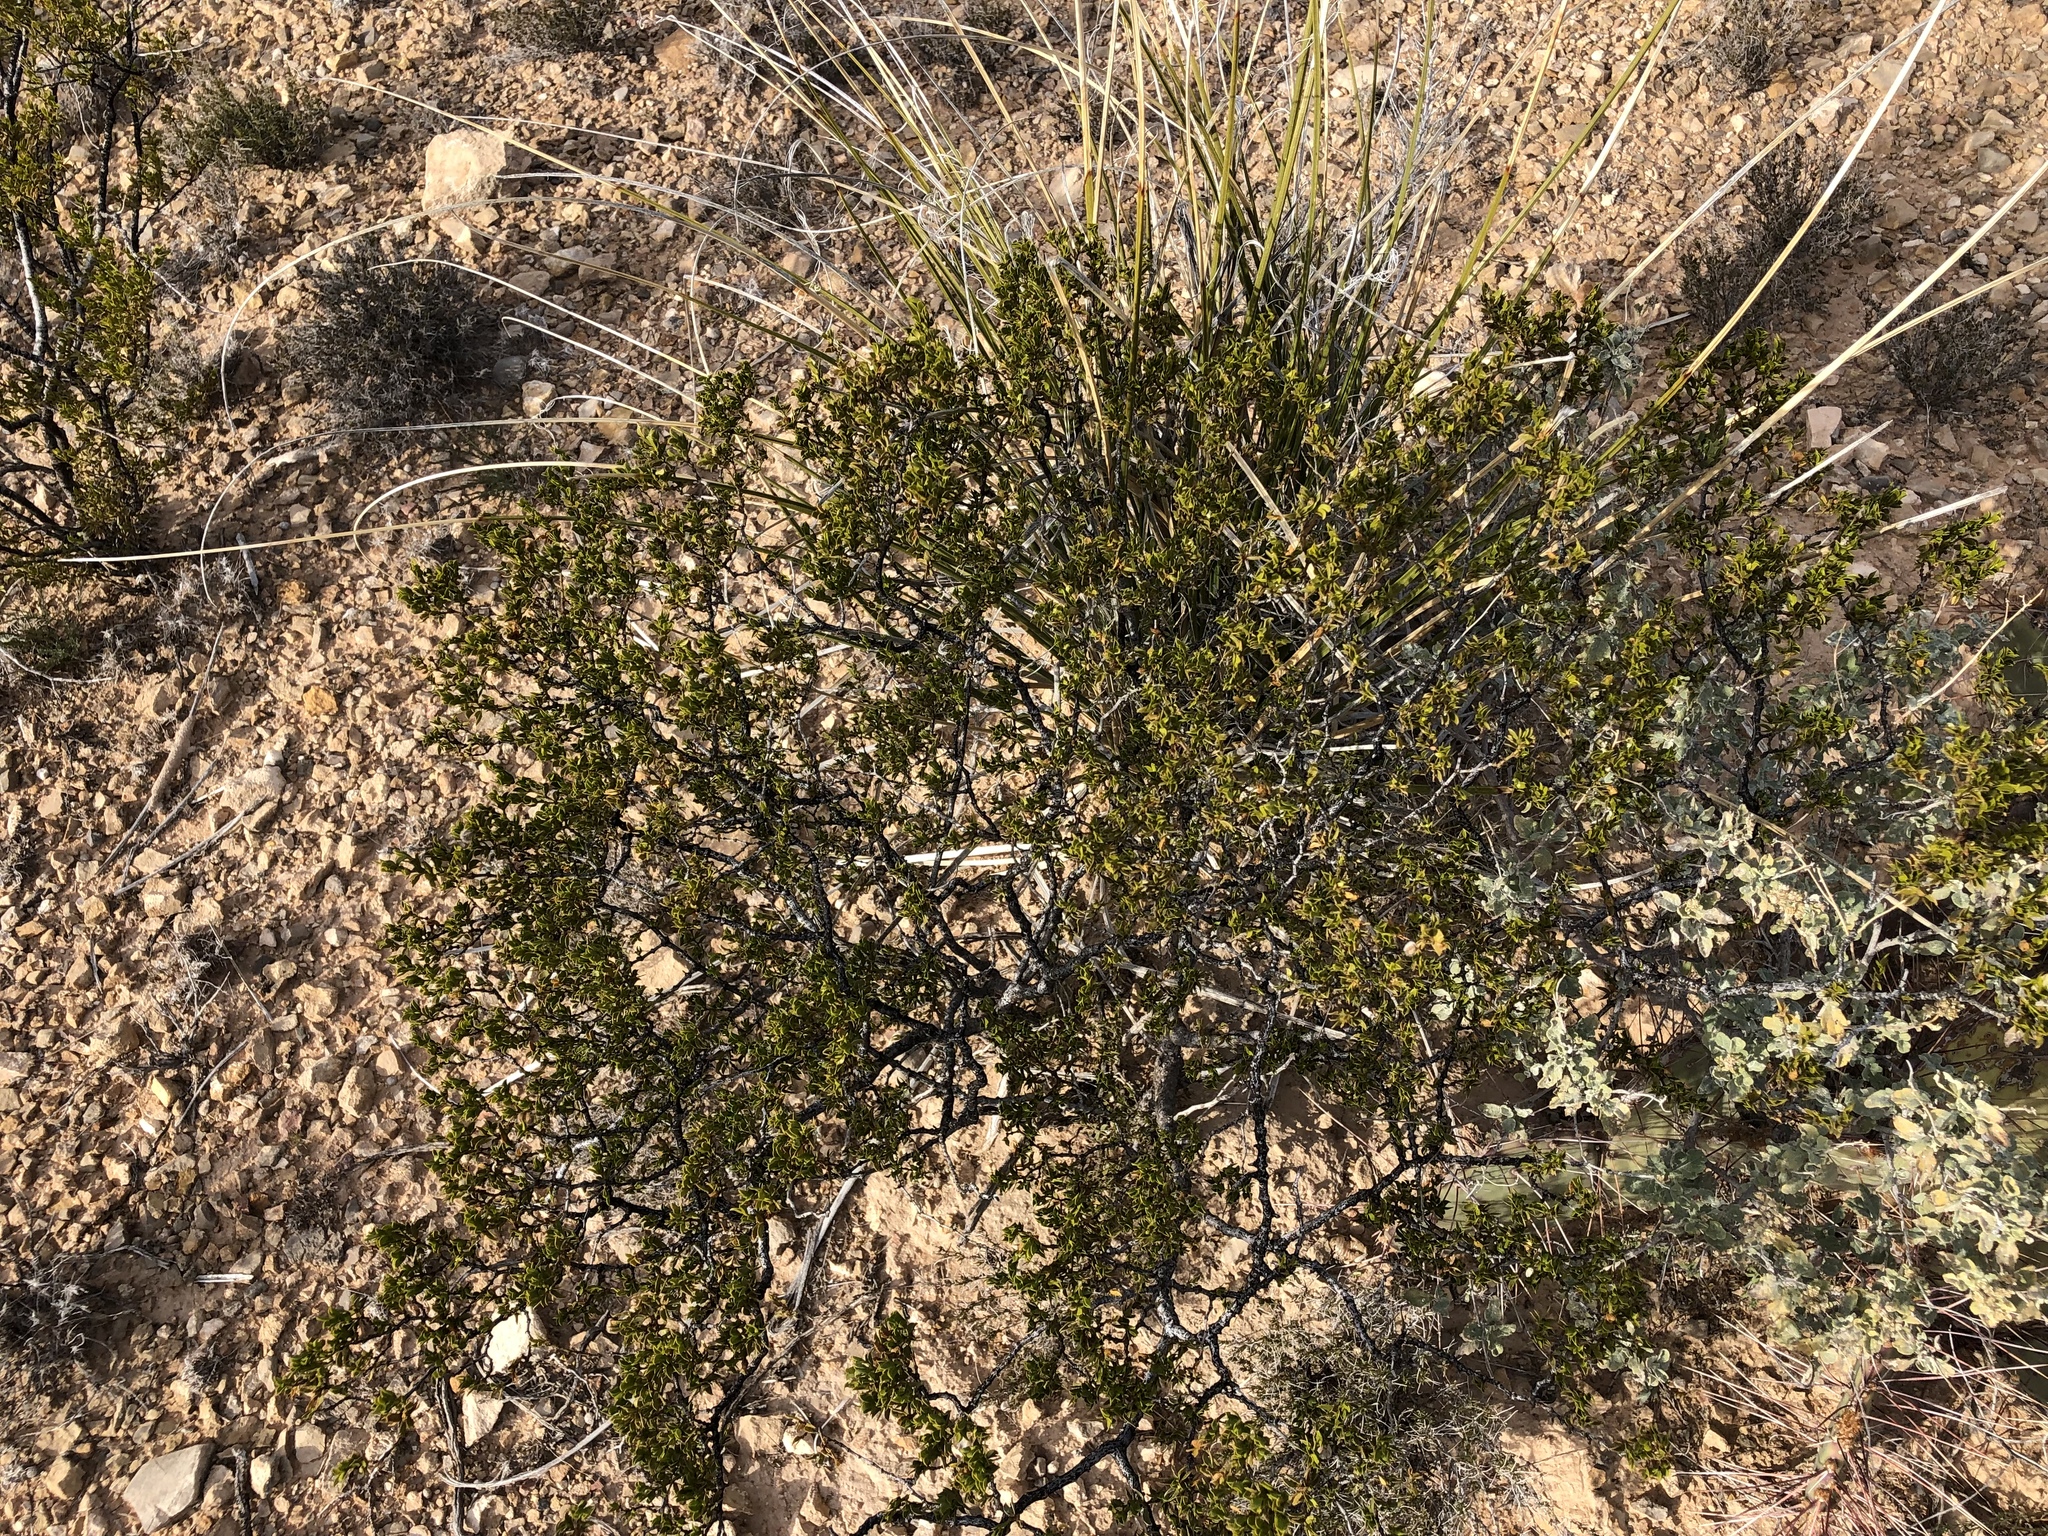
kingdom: Plantae
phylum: Tracheophyta
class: Magnoliopsida
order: Zygophyllales
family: Zygophyllaceae
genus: Larrea
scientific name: Larrea tridentata
